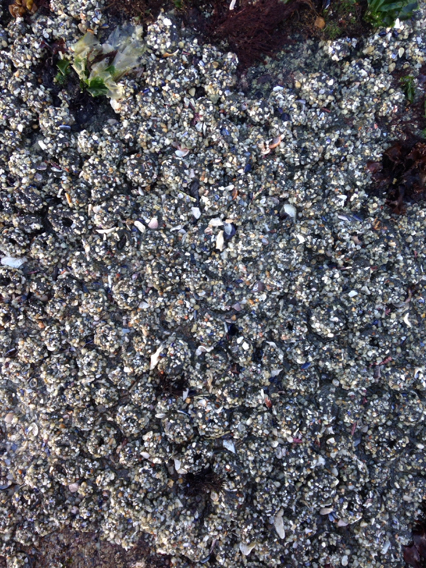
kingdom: Animalia
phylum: Cnidaria
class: Anthozoa
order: Actiniaria
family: Actiniidae
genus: Anthopleura
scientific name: Anthopleura elegantissima
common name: Clonal anemone
